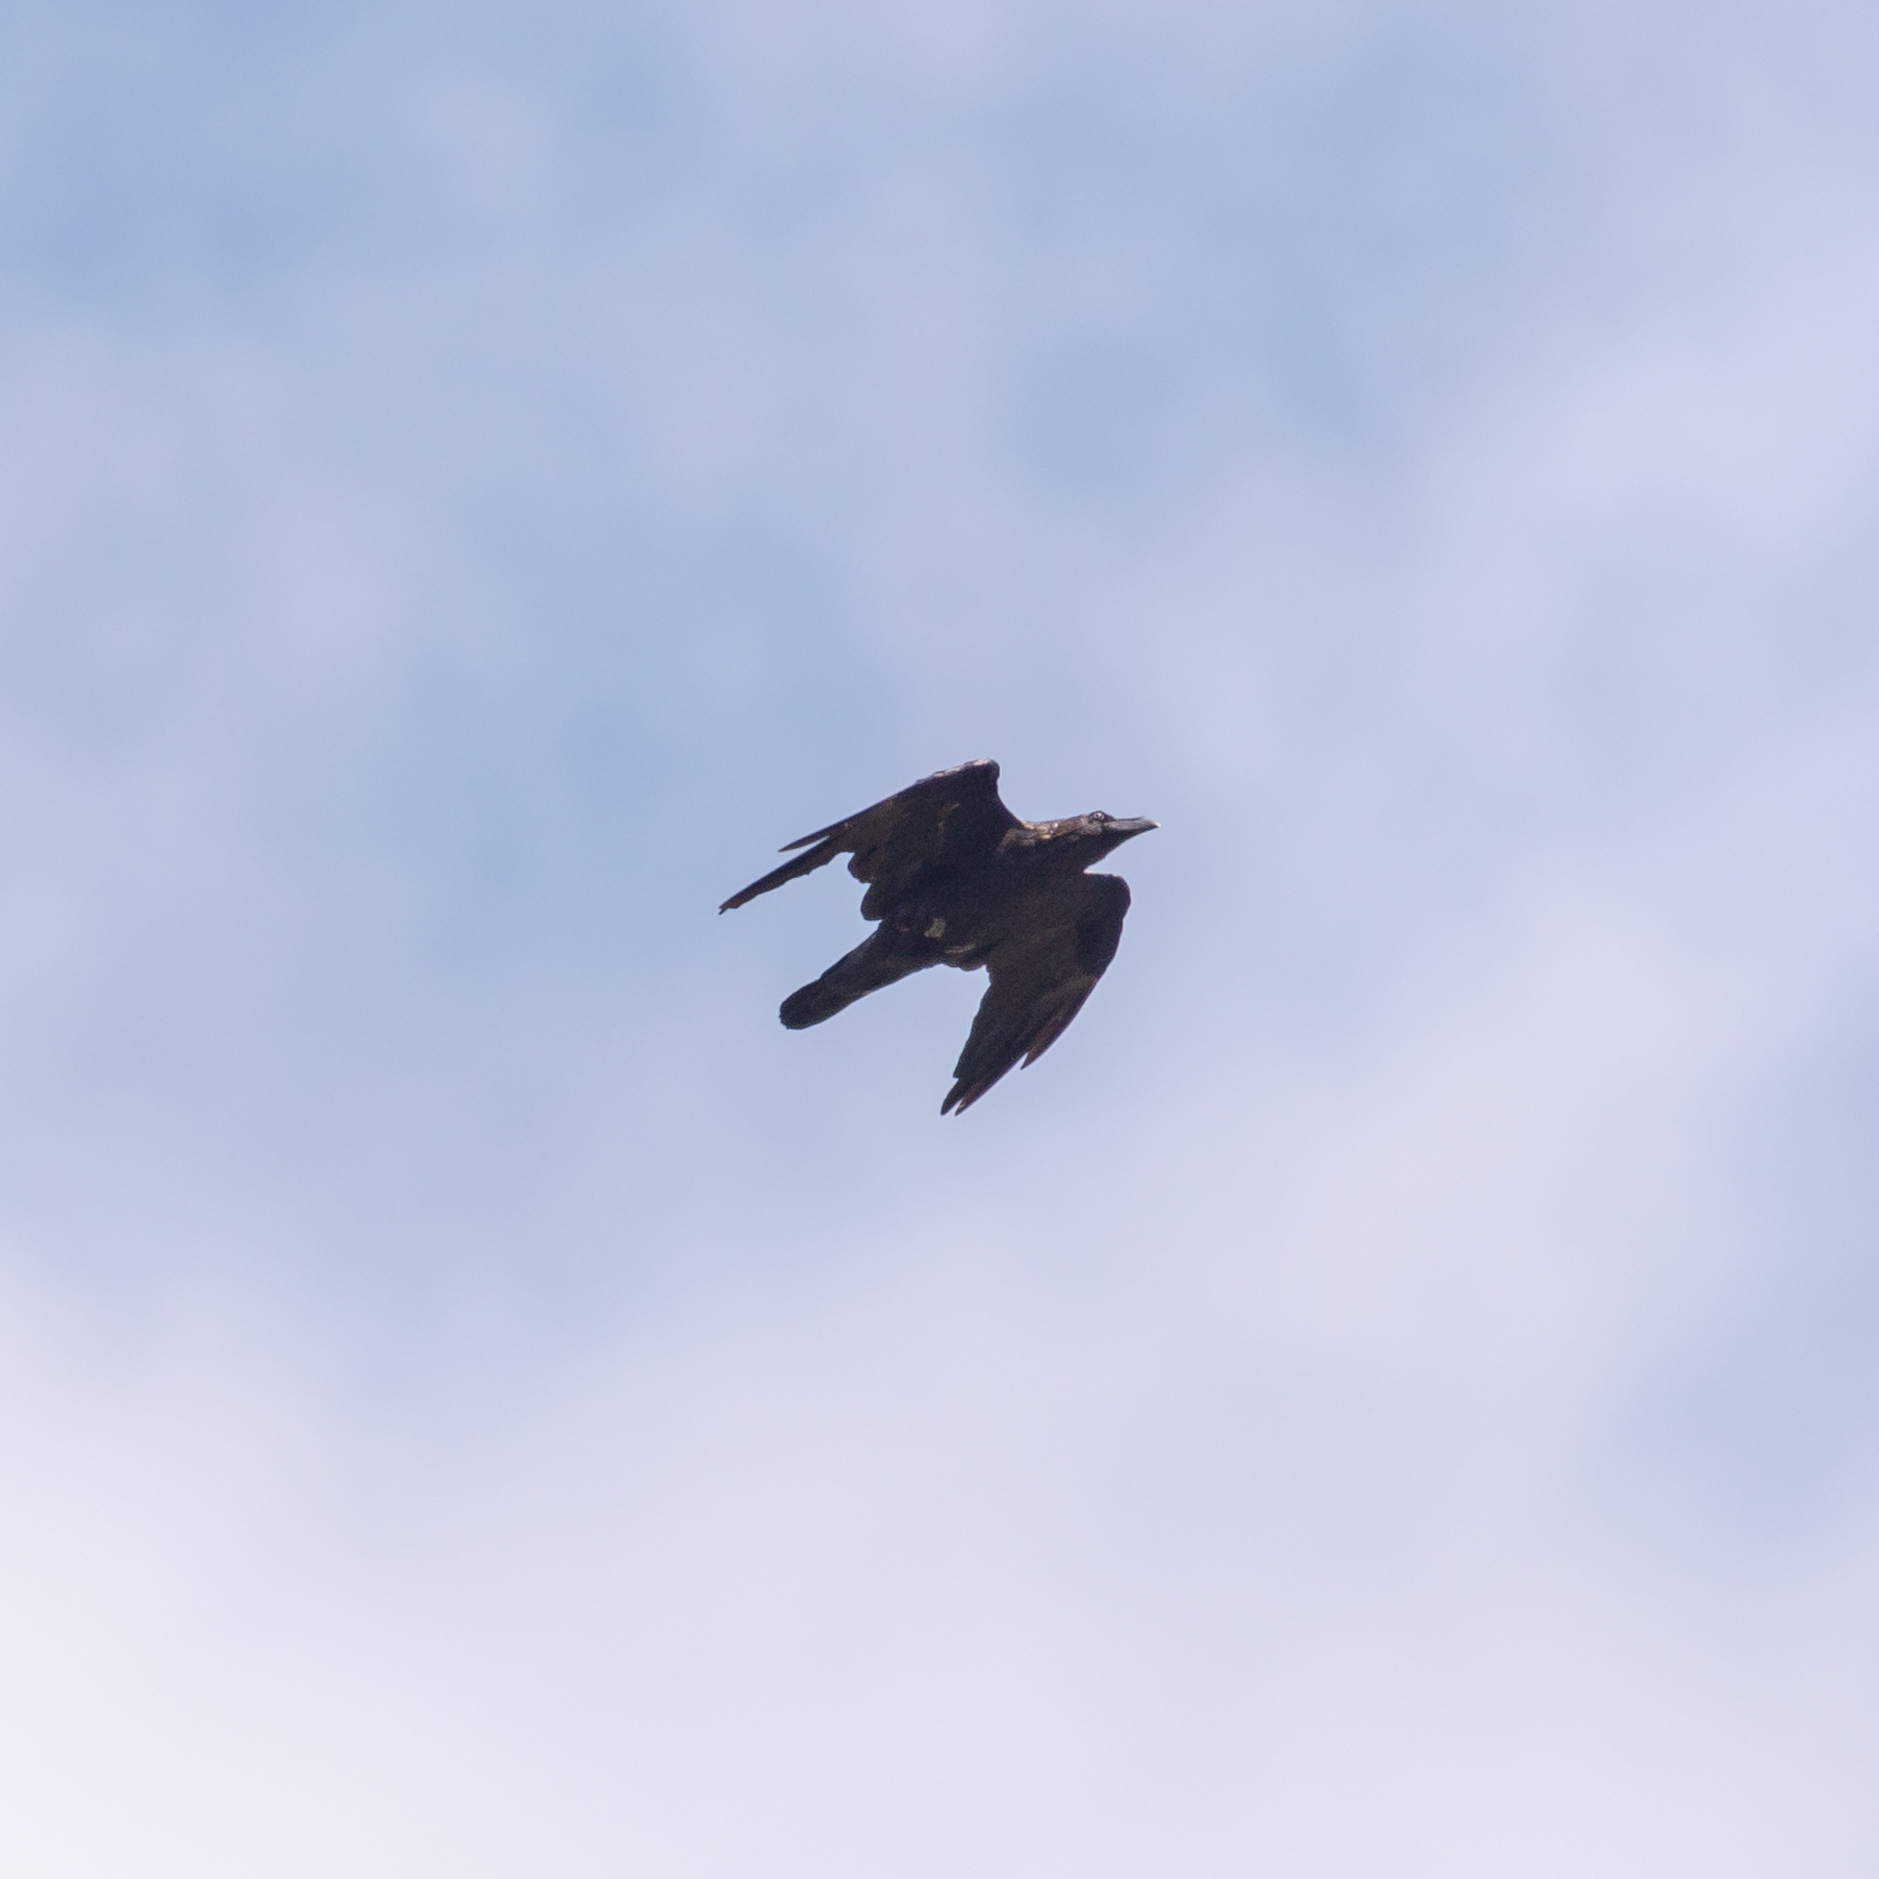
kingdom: Animalia
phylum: Chordata
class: Aves
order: Passeriformes
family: Corvidae
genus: Corvus
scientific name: Corvus corax
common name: Common raven
